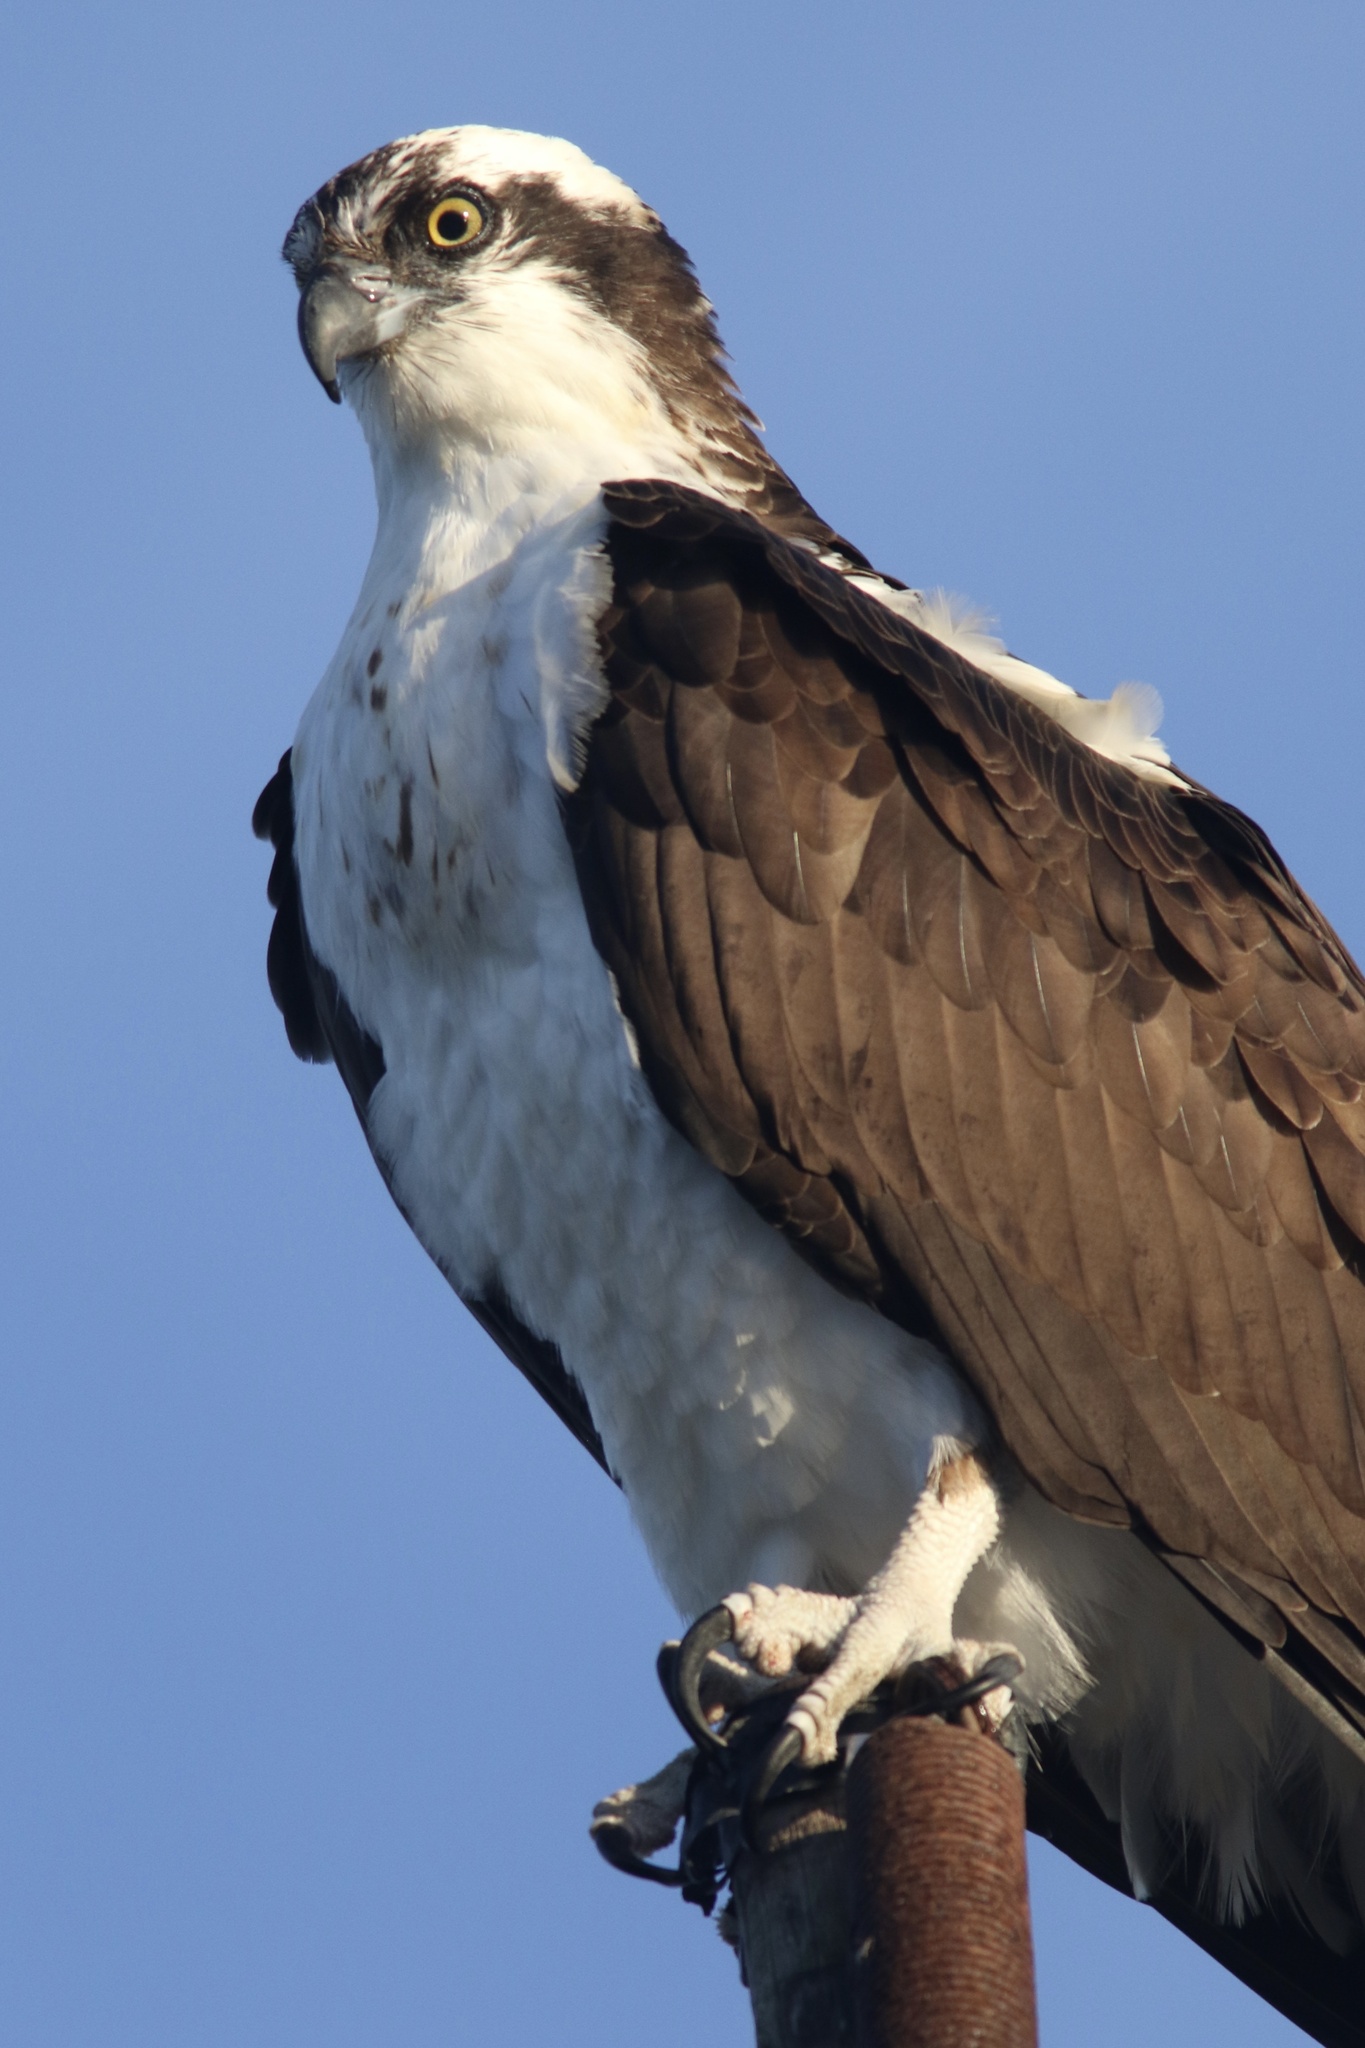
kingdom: Animalia
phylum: Chordata
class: Aves
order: Accipitriformes
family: Pandionidae
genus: Pandion
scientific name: Pandion haliaetus
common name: Osprey
